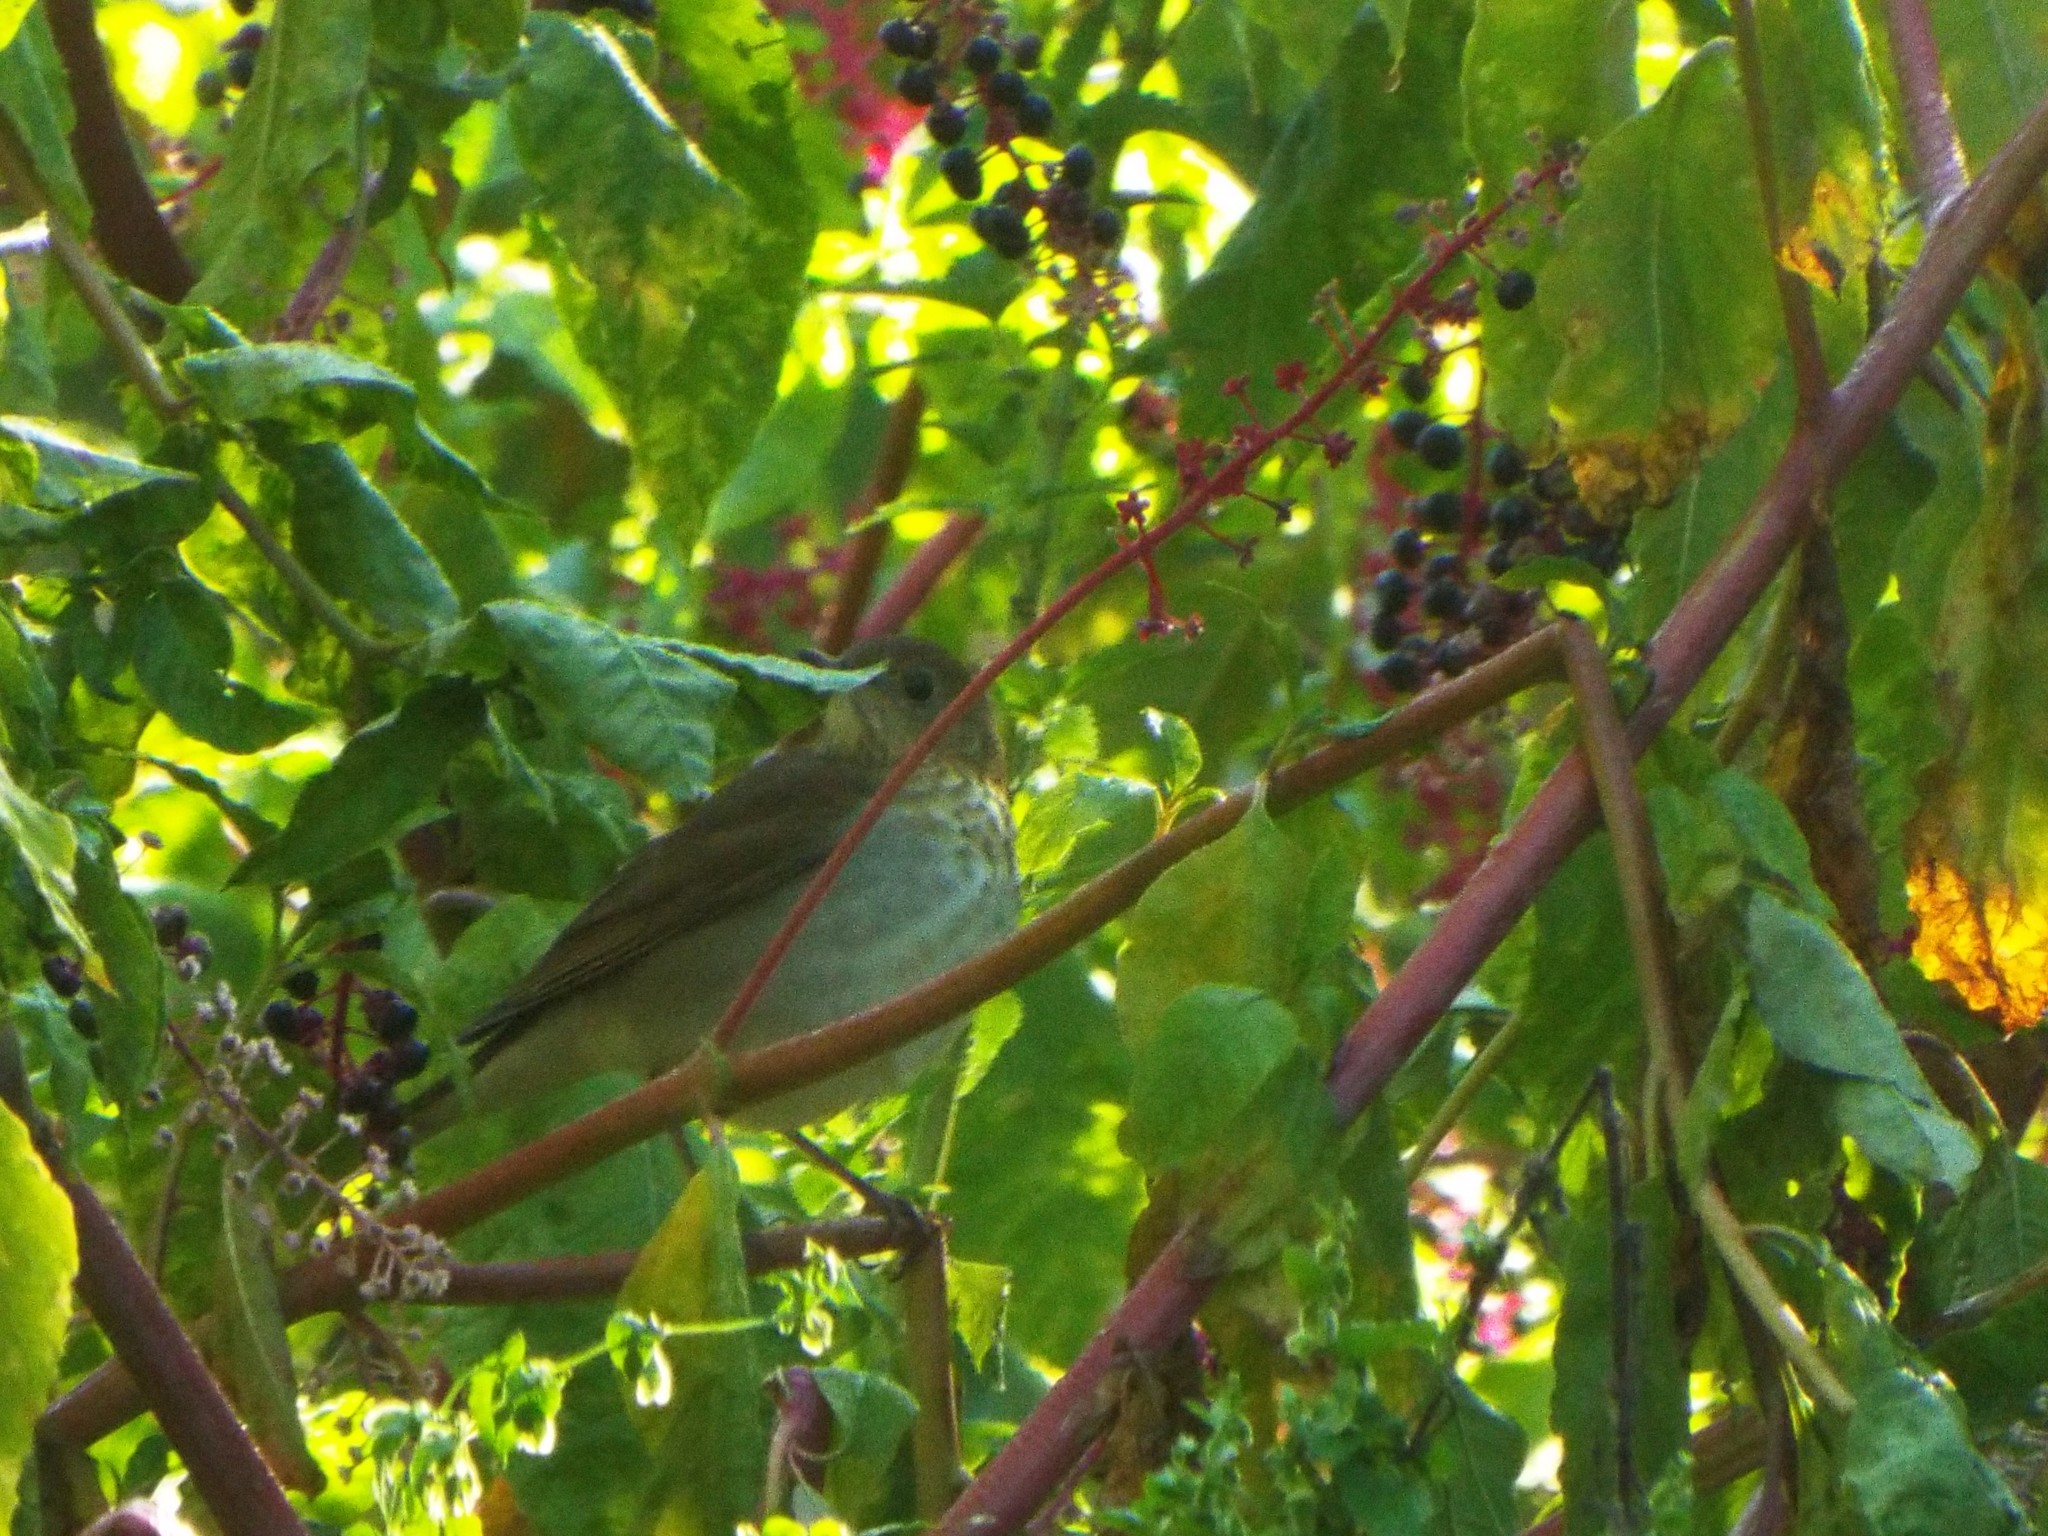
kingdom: Animalia
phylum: Chordata
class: Aves
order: Passeriformes
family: Turdidae
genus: Catharus
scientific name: Catharus fuscescens
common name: Veery
